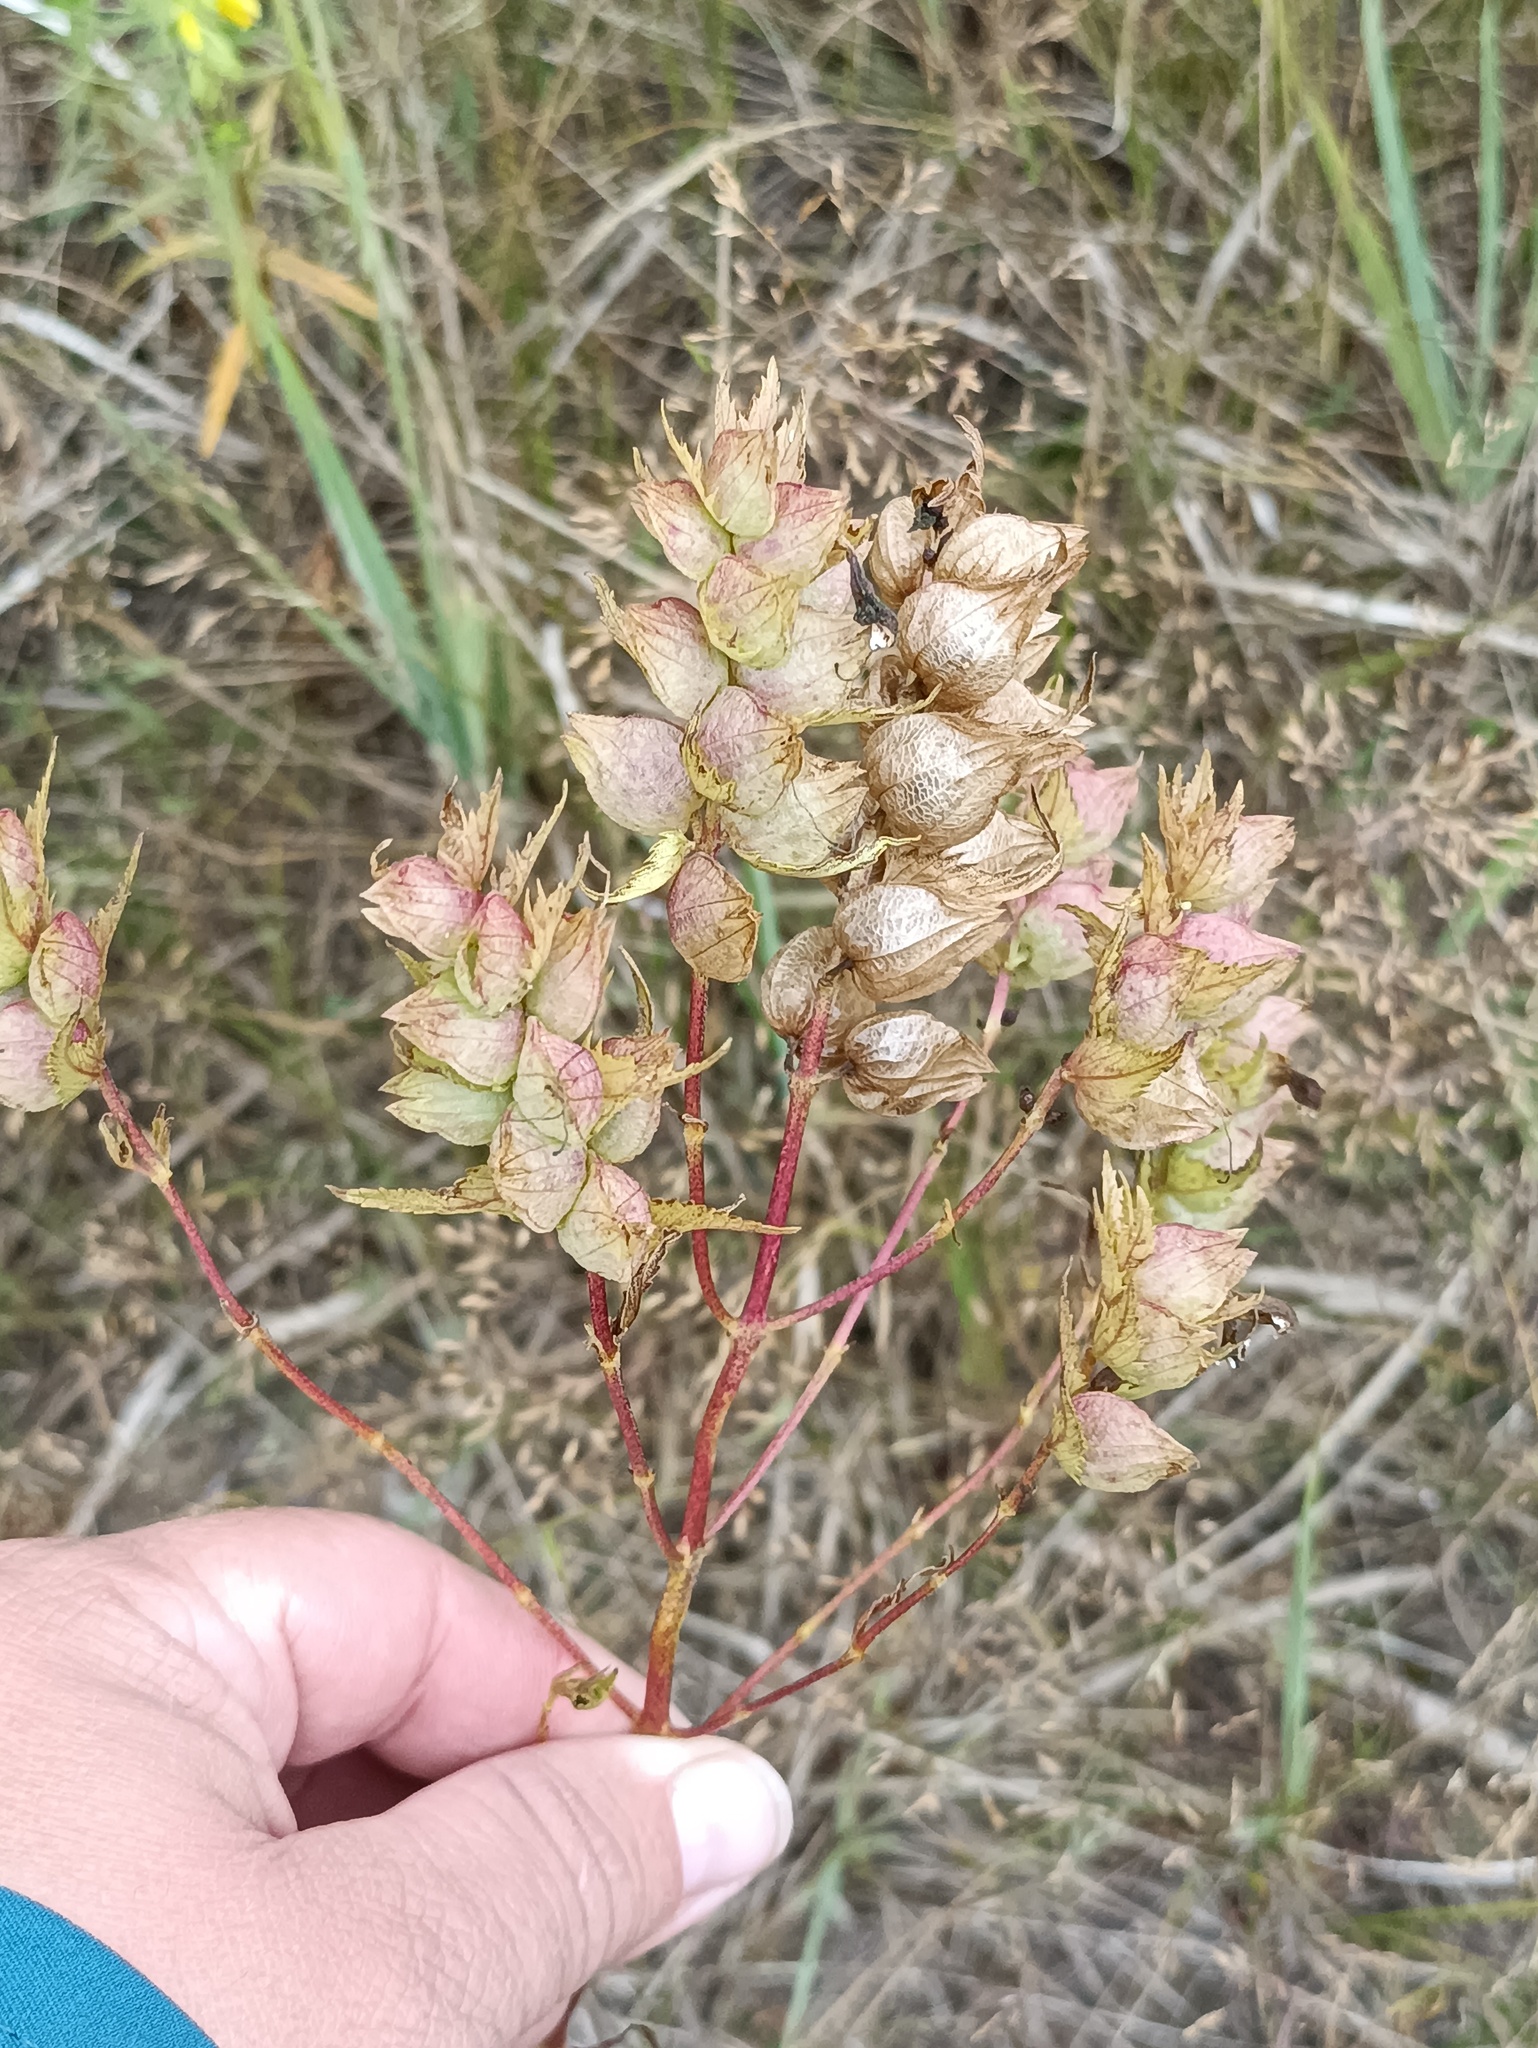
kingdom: Plantae
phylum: Tracheophyta
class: Magnoliopsida
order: Lamiales
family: Orobanchaceae
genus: Rhinanthus
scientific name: Rhinanthus serotinus
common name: Late-flowering yellow rattle
